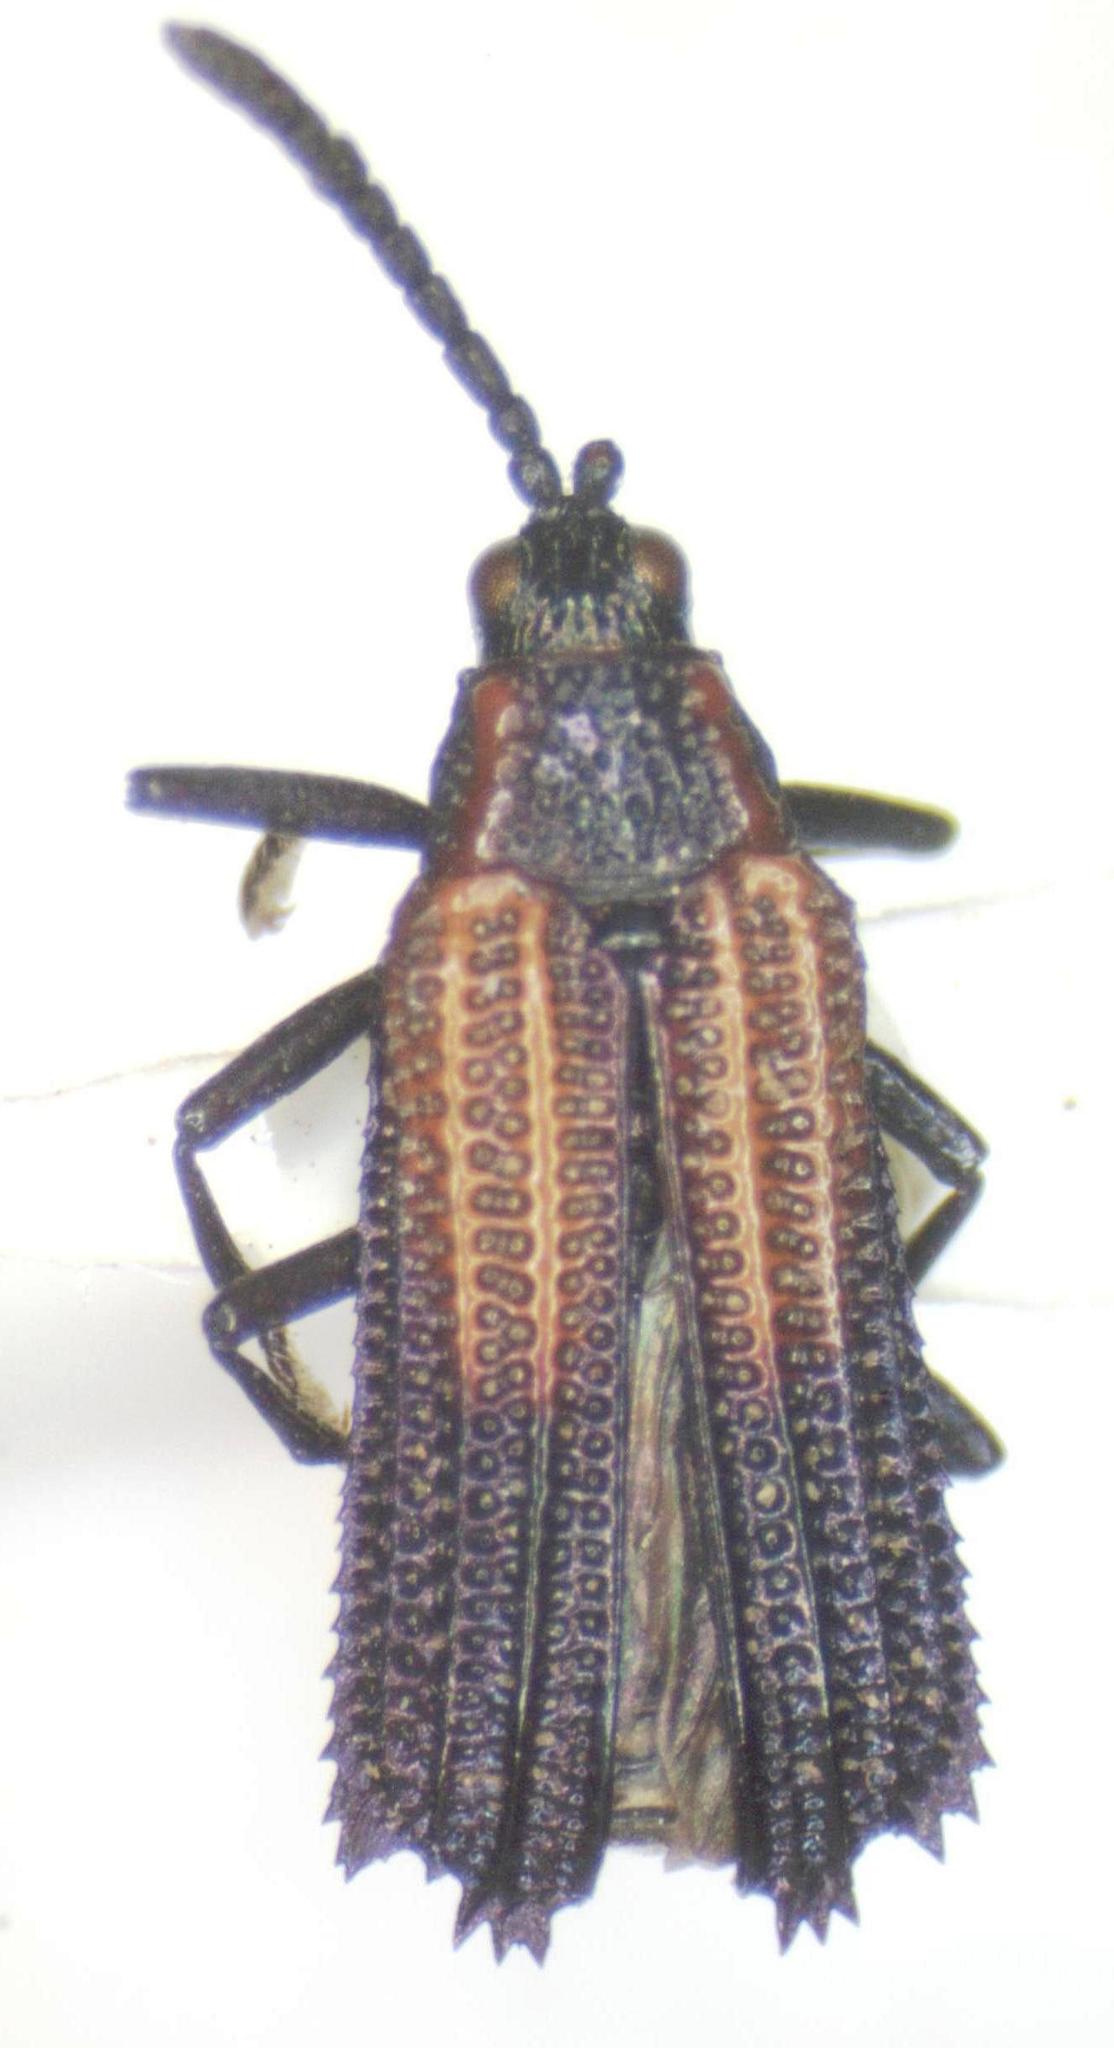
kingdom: Animalia
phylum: Arthropoda
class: Insecta
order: Coleoptera
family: Chrysomelidae
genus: Pentispa
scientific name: Pentispa clarkella
